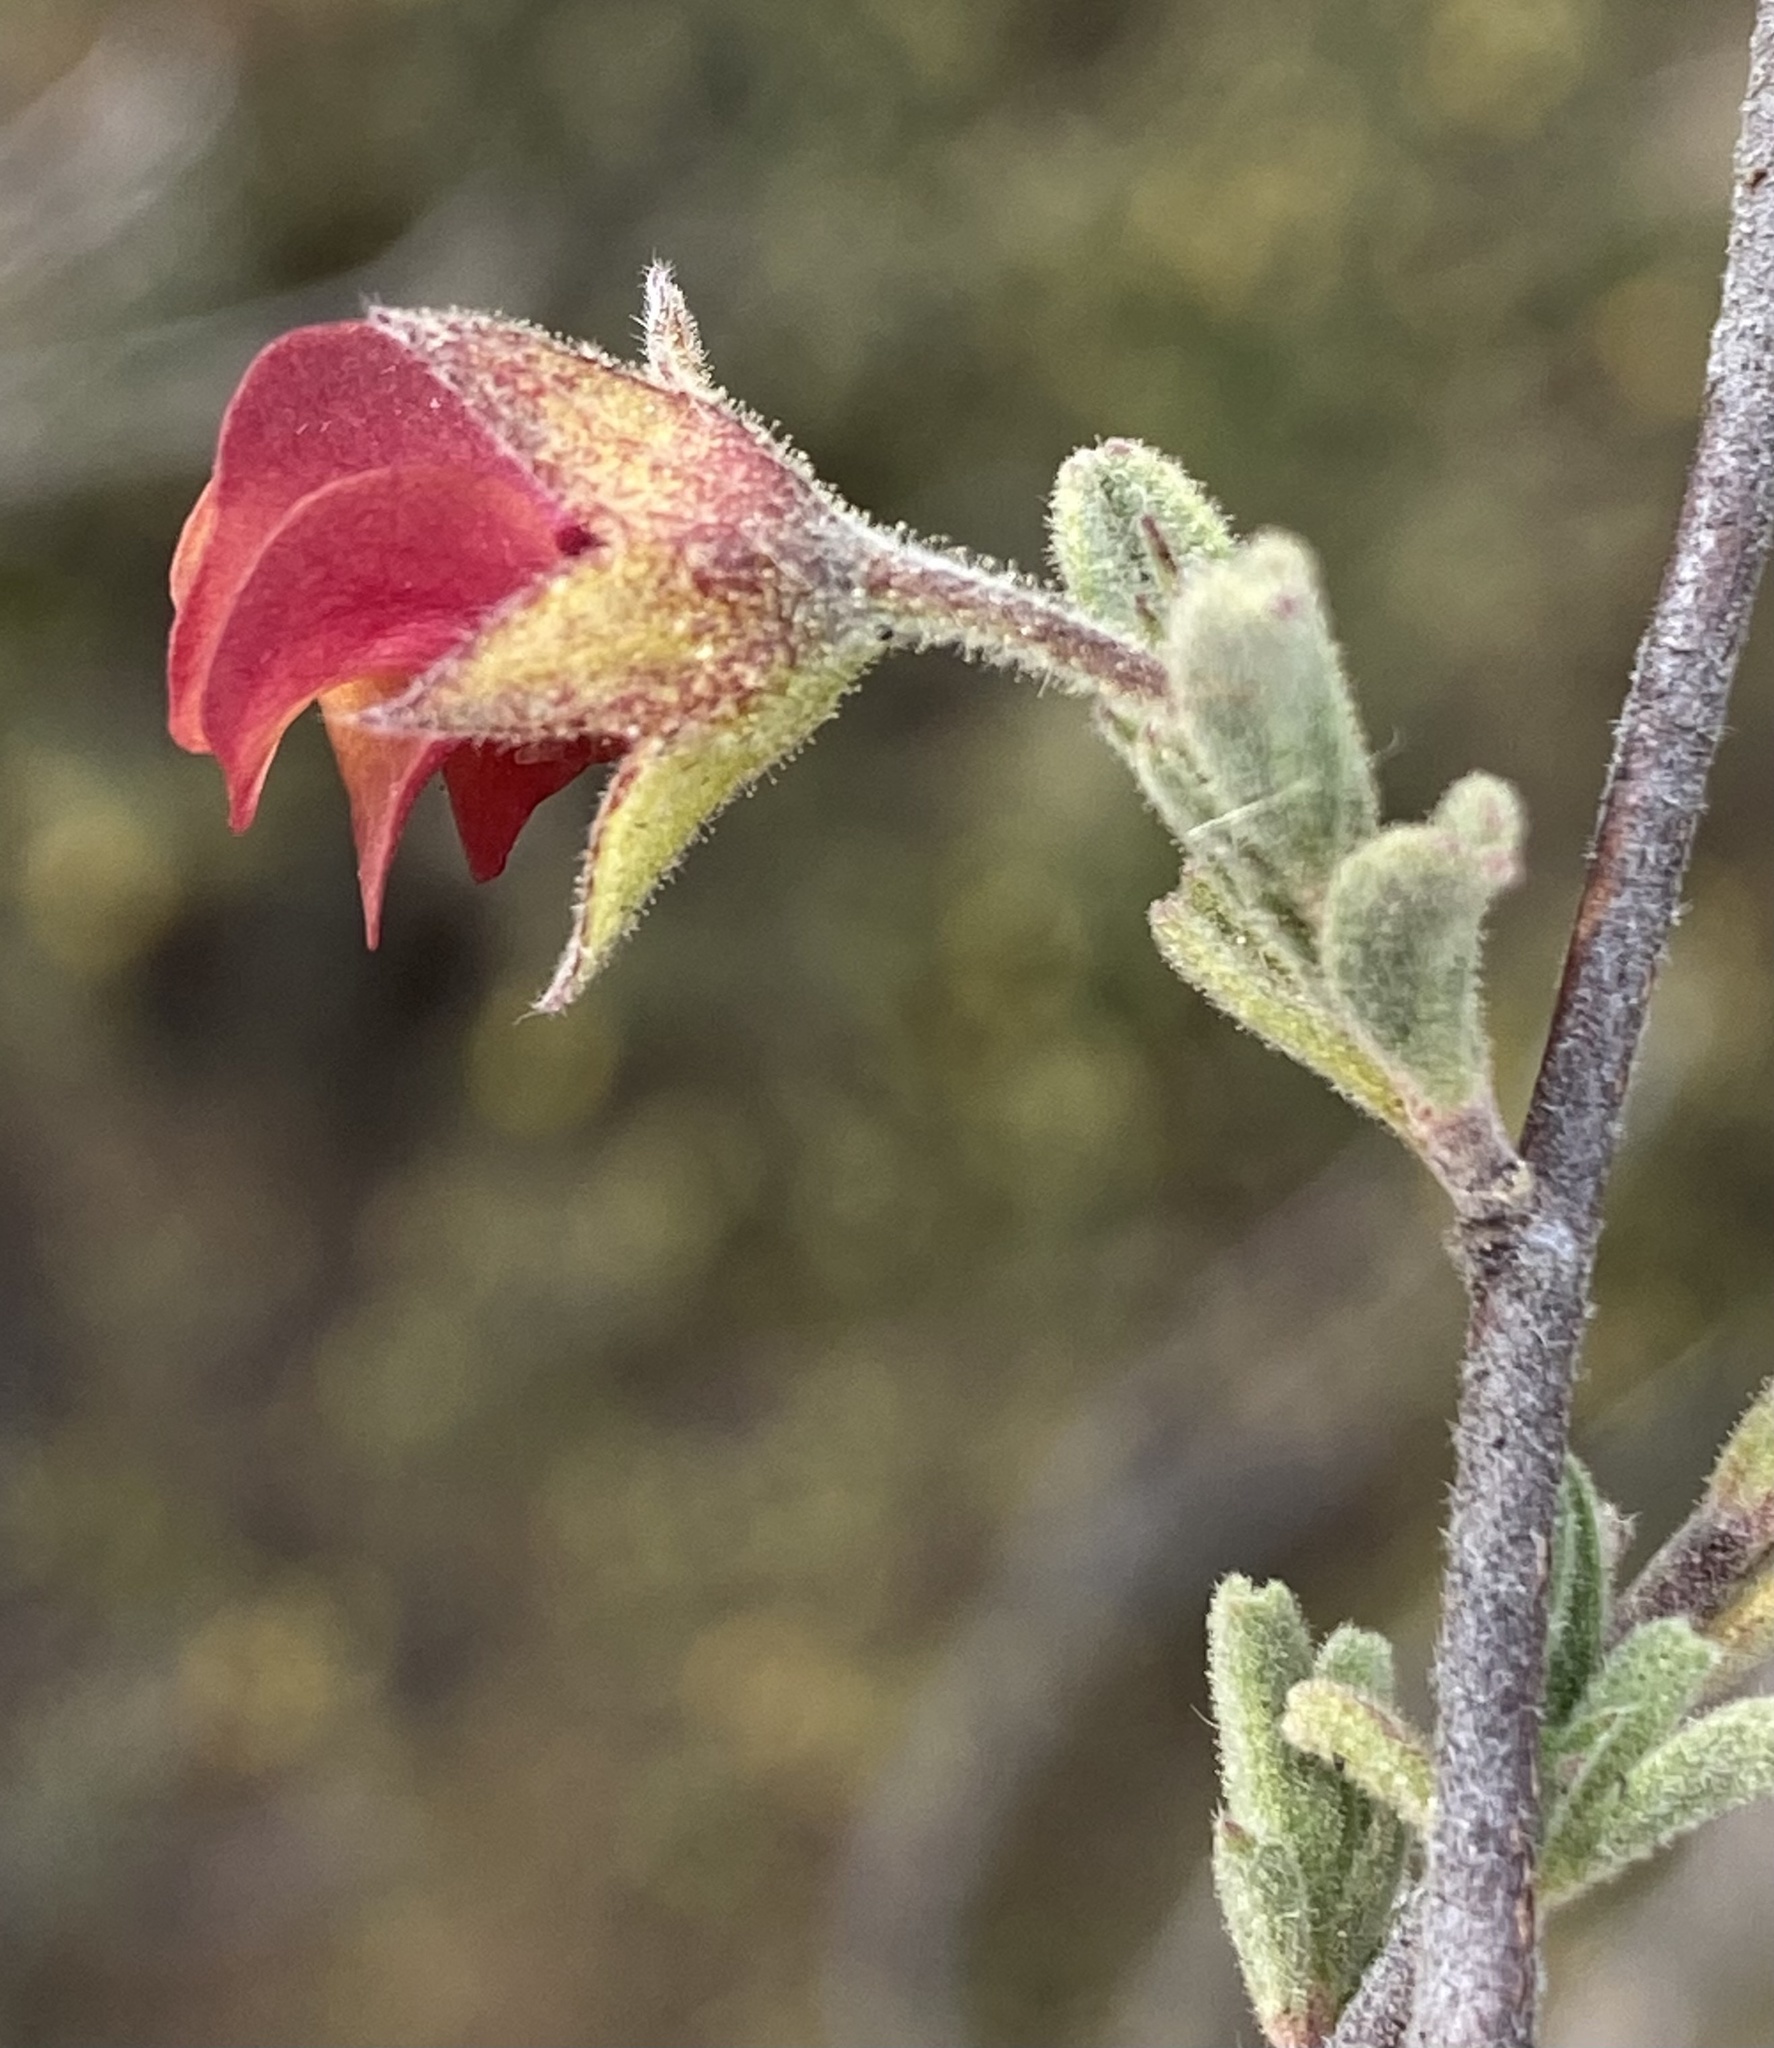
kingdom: Plantae
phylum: Tracheophyta
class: Magnoliopsida
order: Malvales
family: Malvaceae
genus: Hermannia
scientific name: Hermannia flammula
